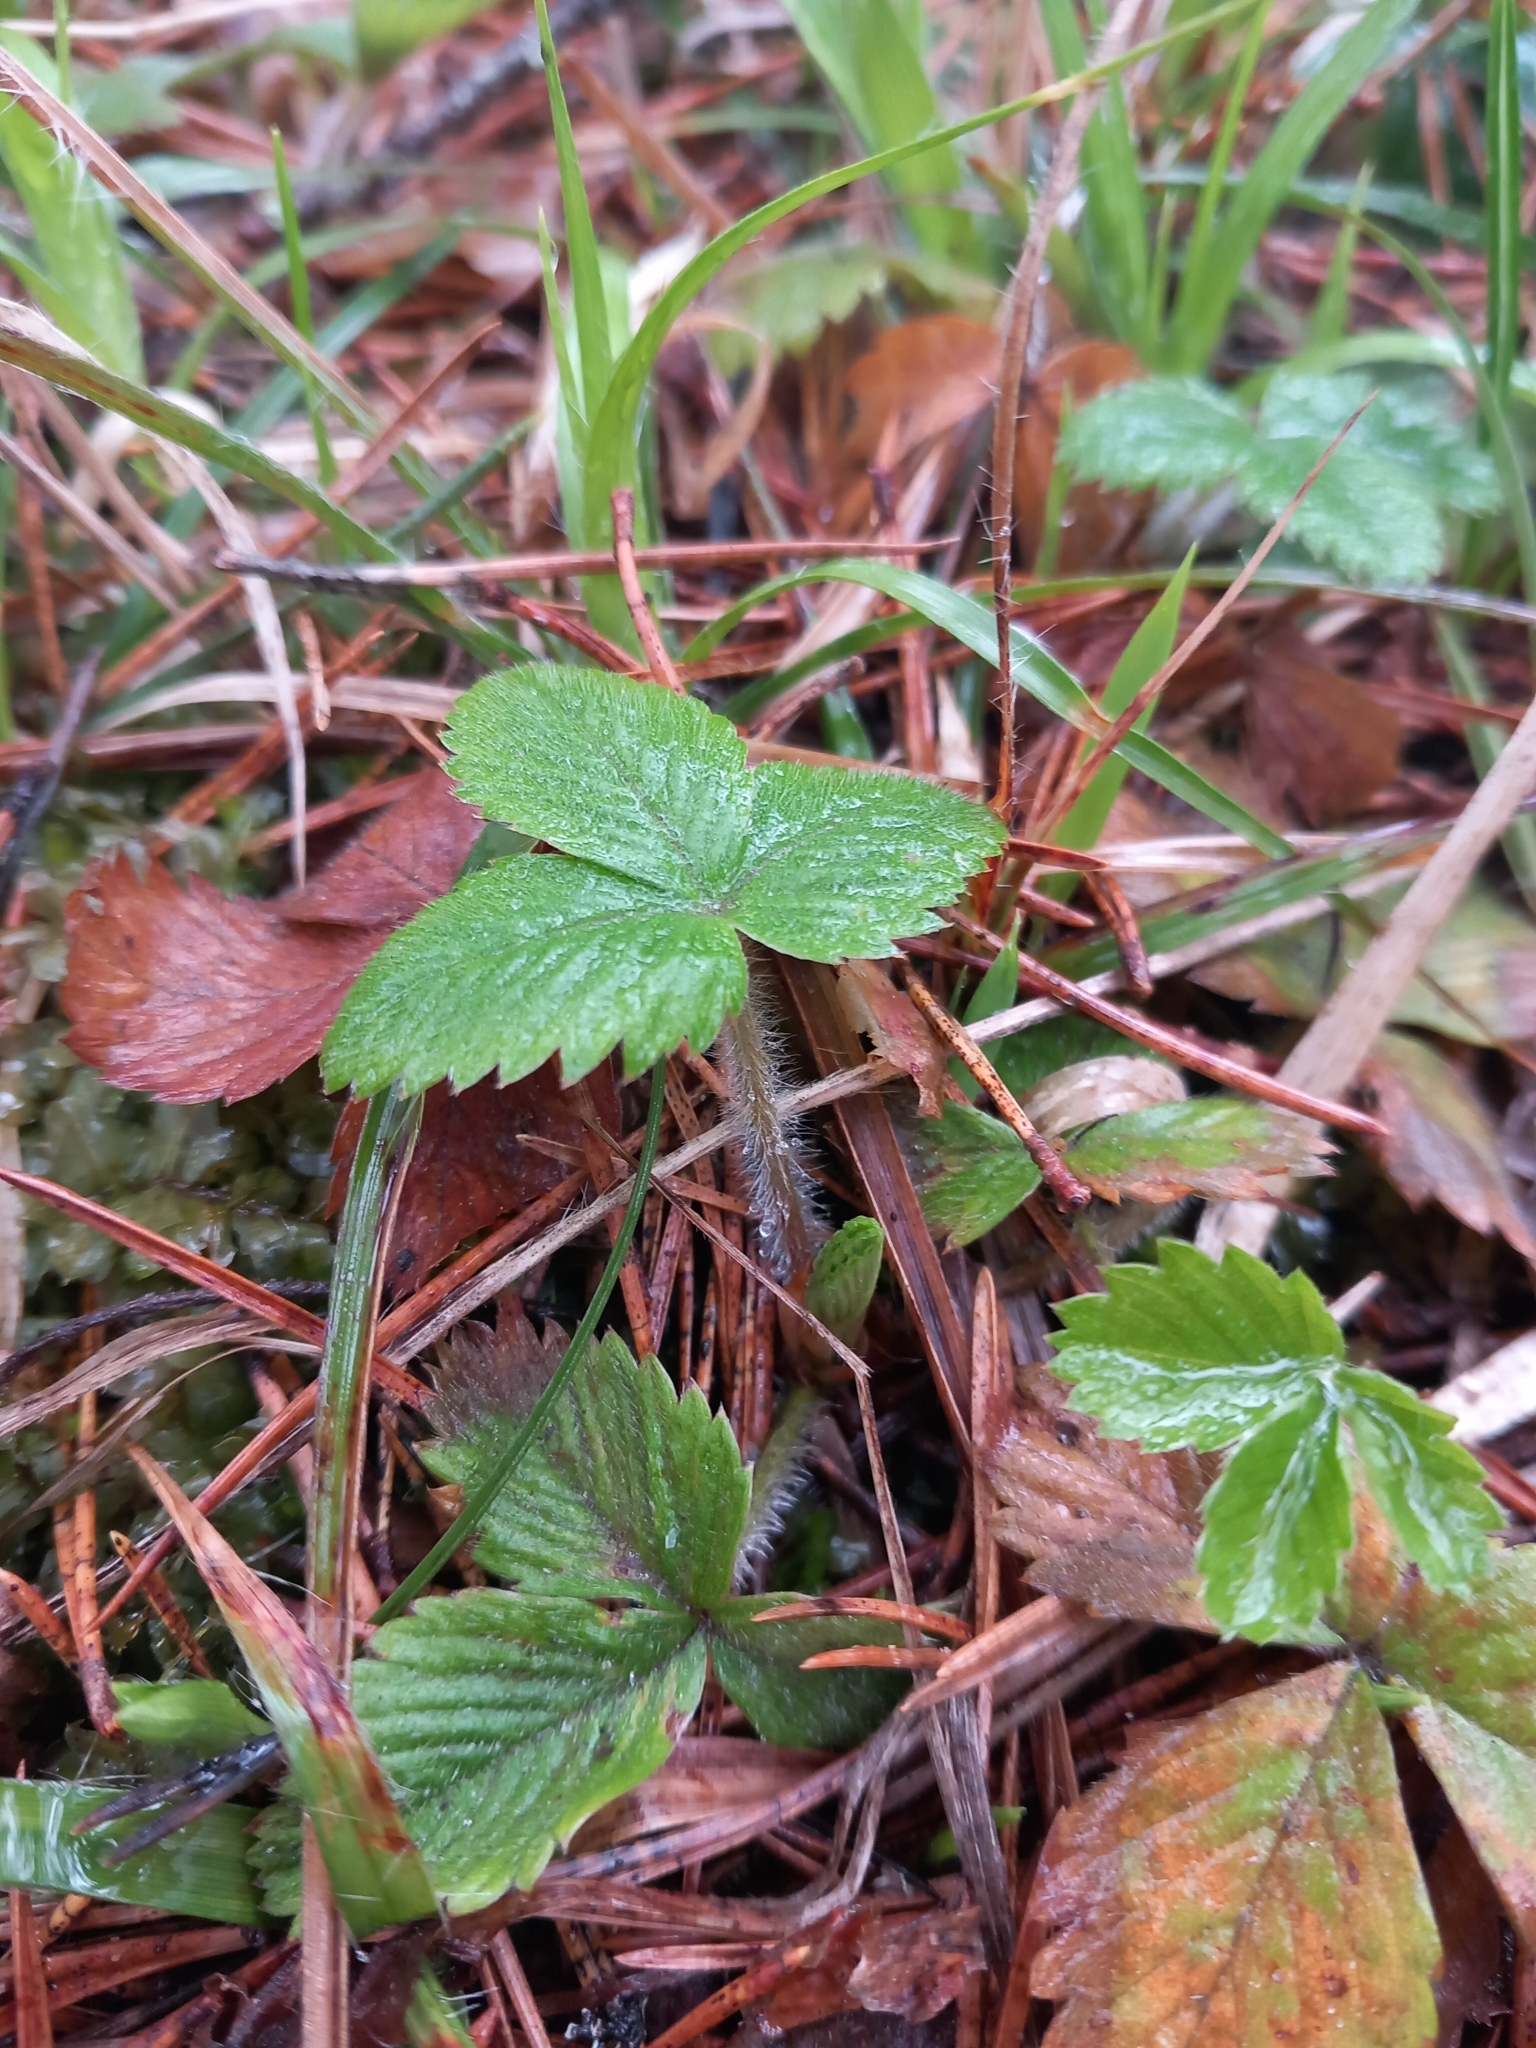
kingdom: Plantae
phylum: Tracheophyta
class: Magnoliopsida
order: Rosales
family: Rosaceae
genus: Fragaria
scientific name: Fragaria vesca
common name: Wild strawberry
